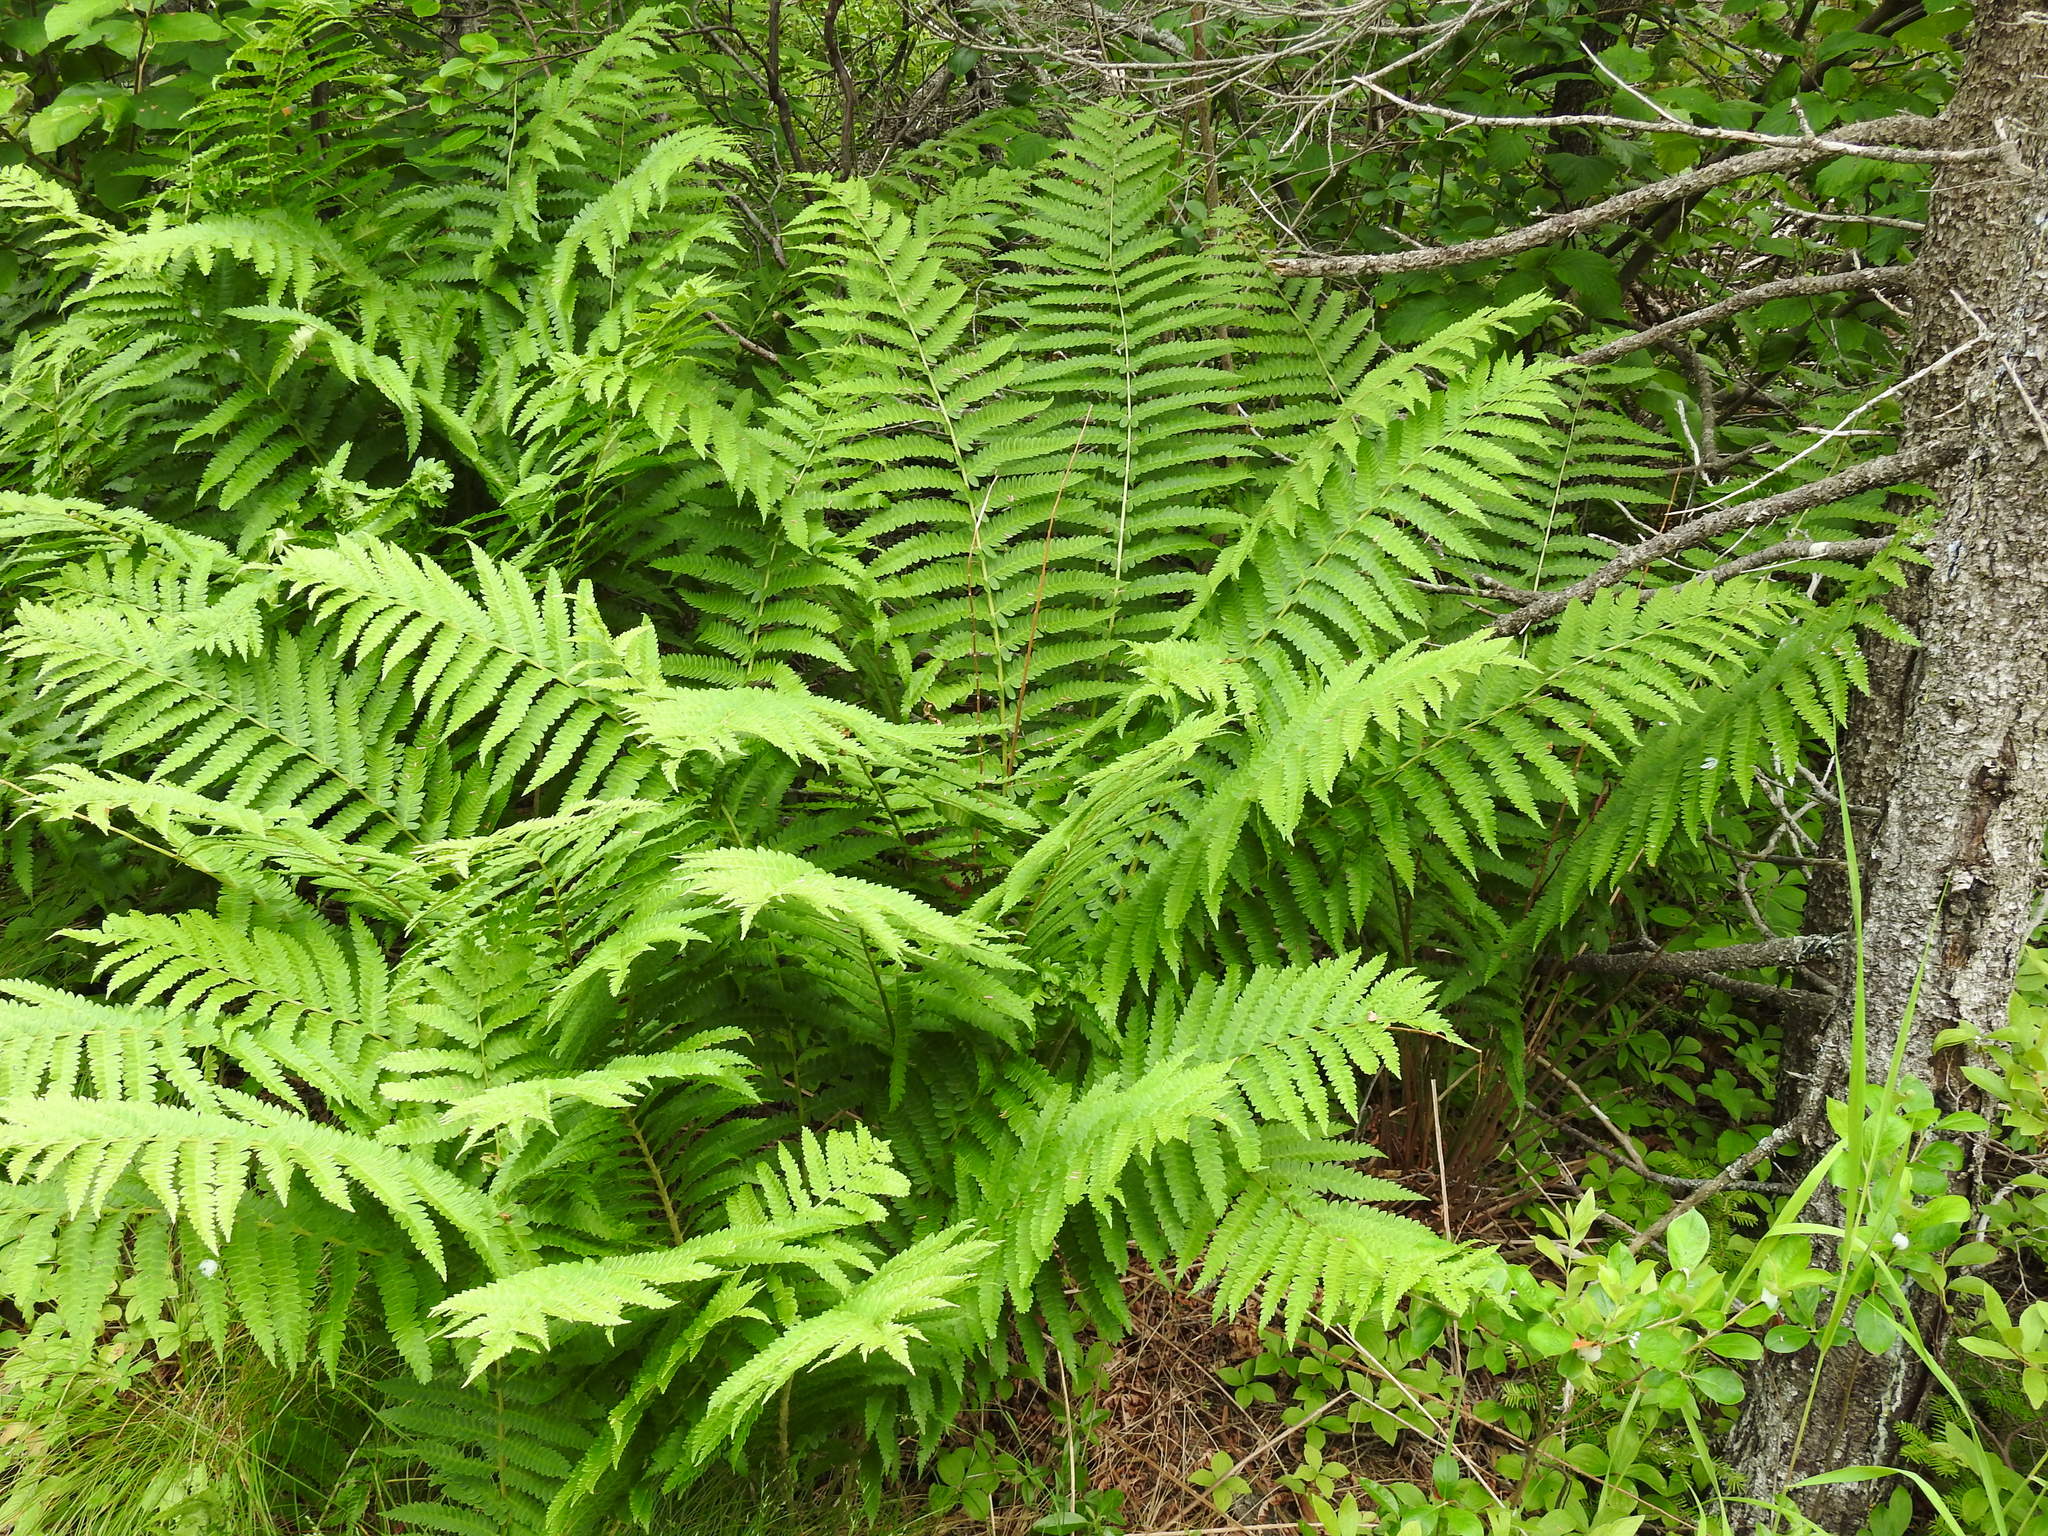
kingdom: Plantae
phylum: Tracheophyta
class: Polypodiopsida
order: Osmundales
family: Osmundaceae
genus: Osmundastrum
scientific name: Osmundastrum cinnamomeum
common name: Cinnamon fern
